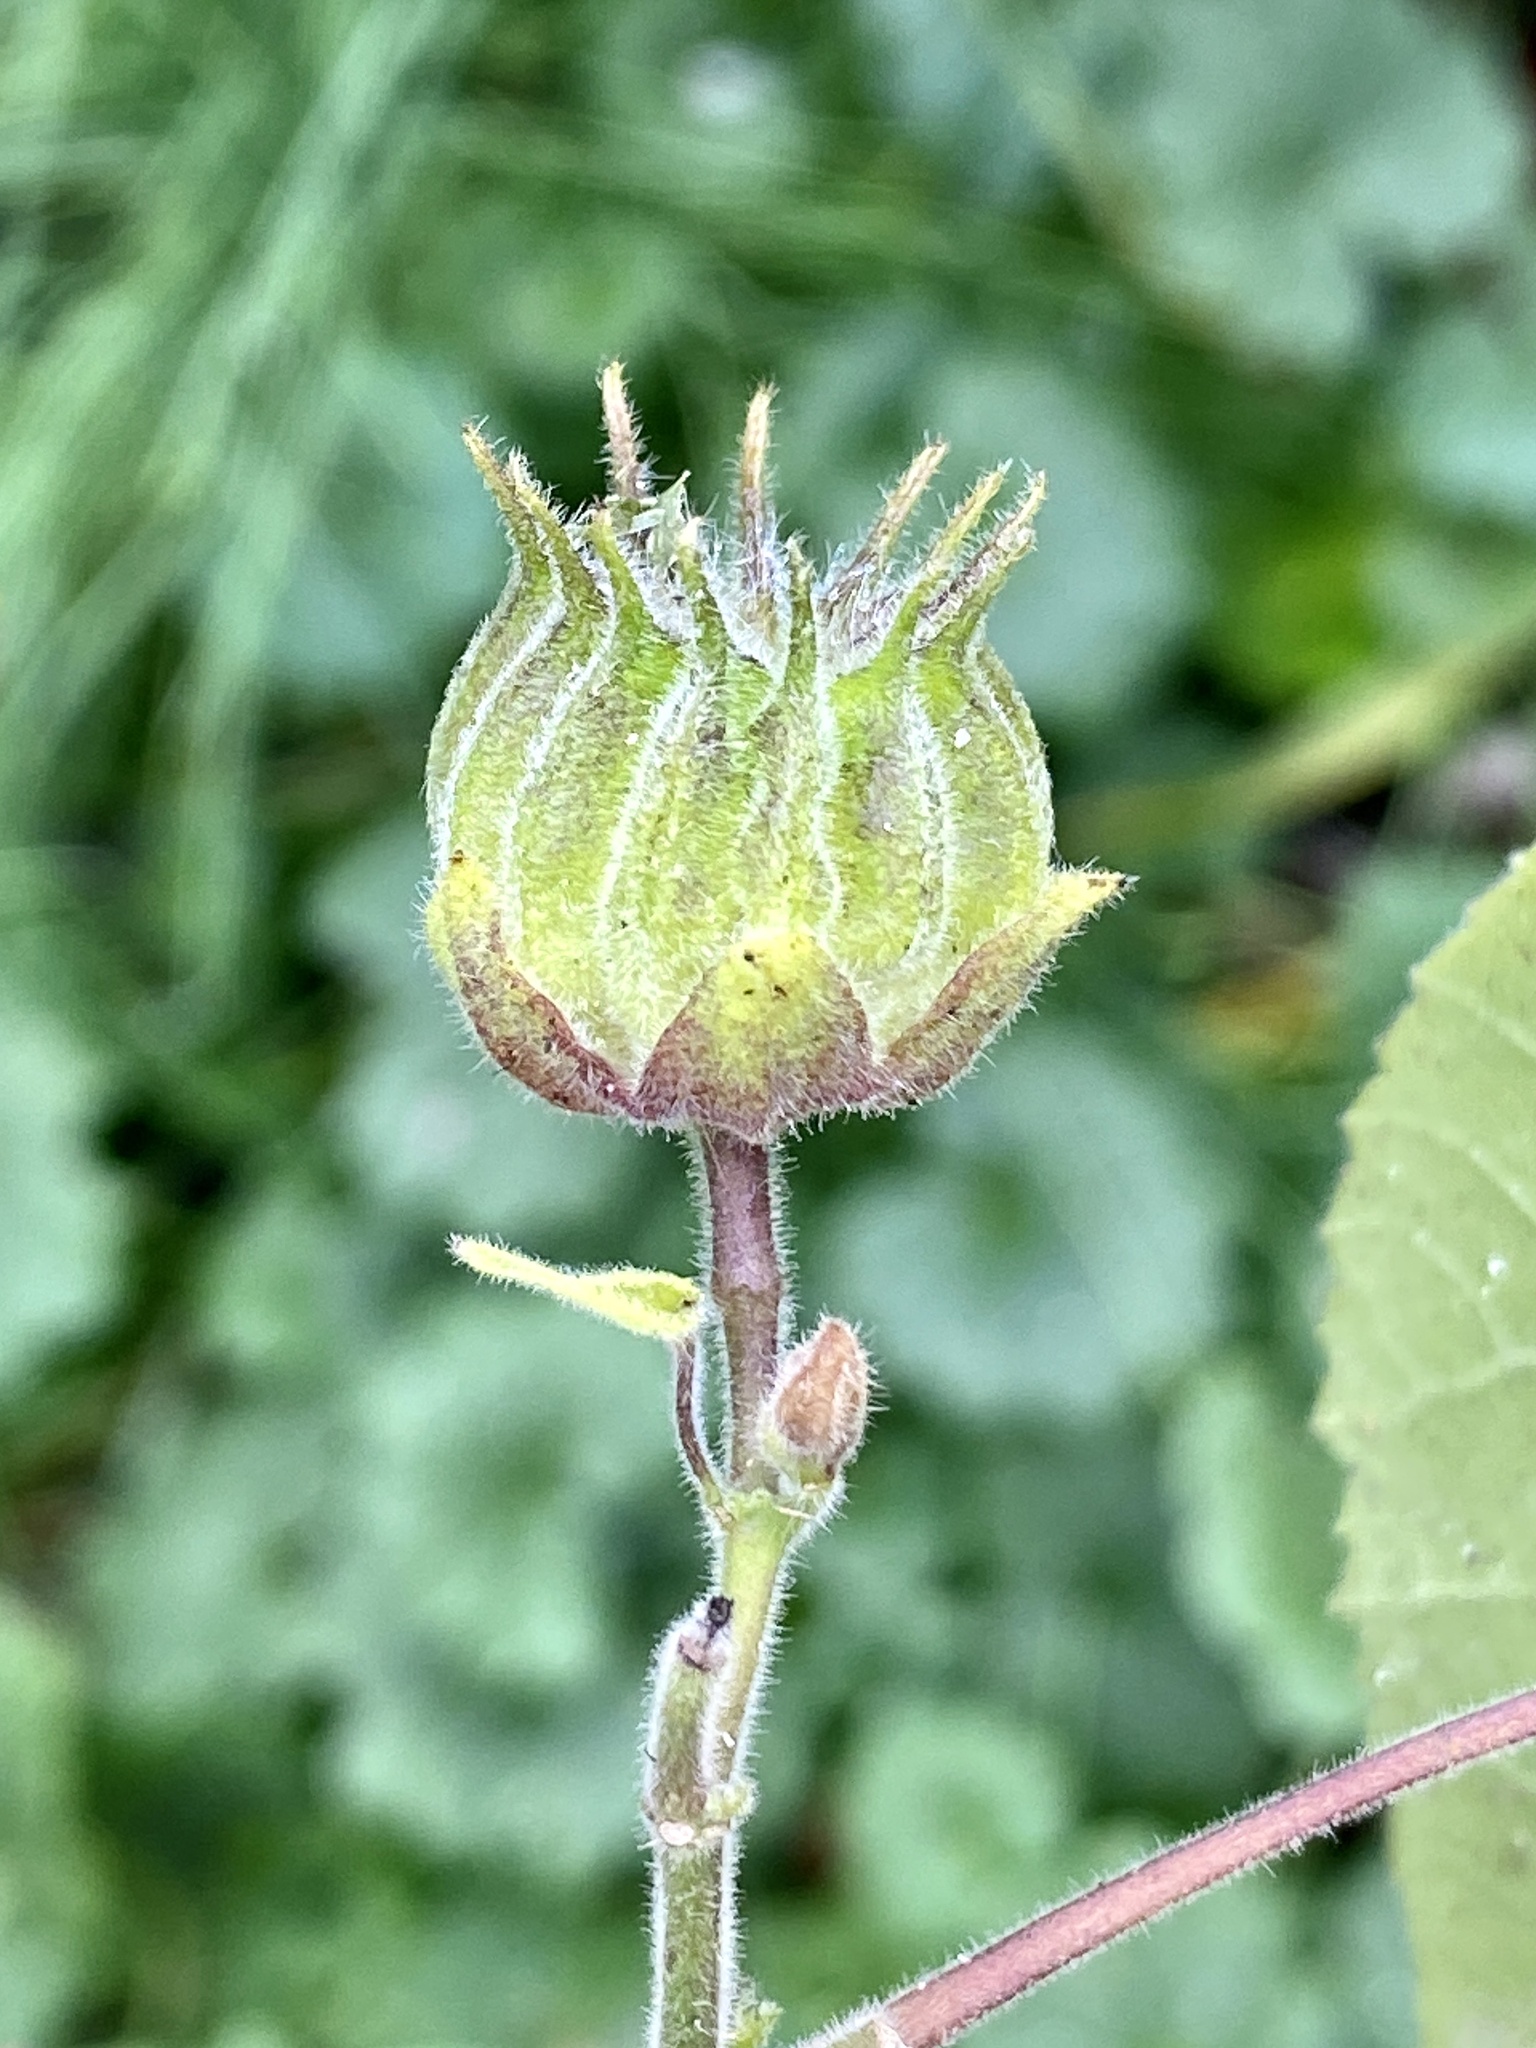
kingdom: Plantae
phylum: Tracheophyta
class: Magnoliopsida
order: Malvales
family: Malvaceae
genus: Abutilon
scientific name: Abutilon theophrasti
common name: Velvetleaf
